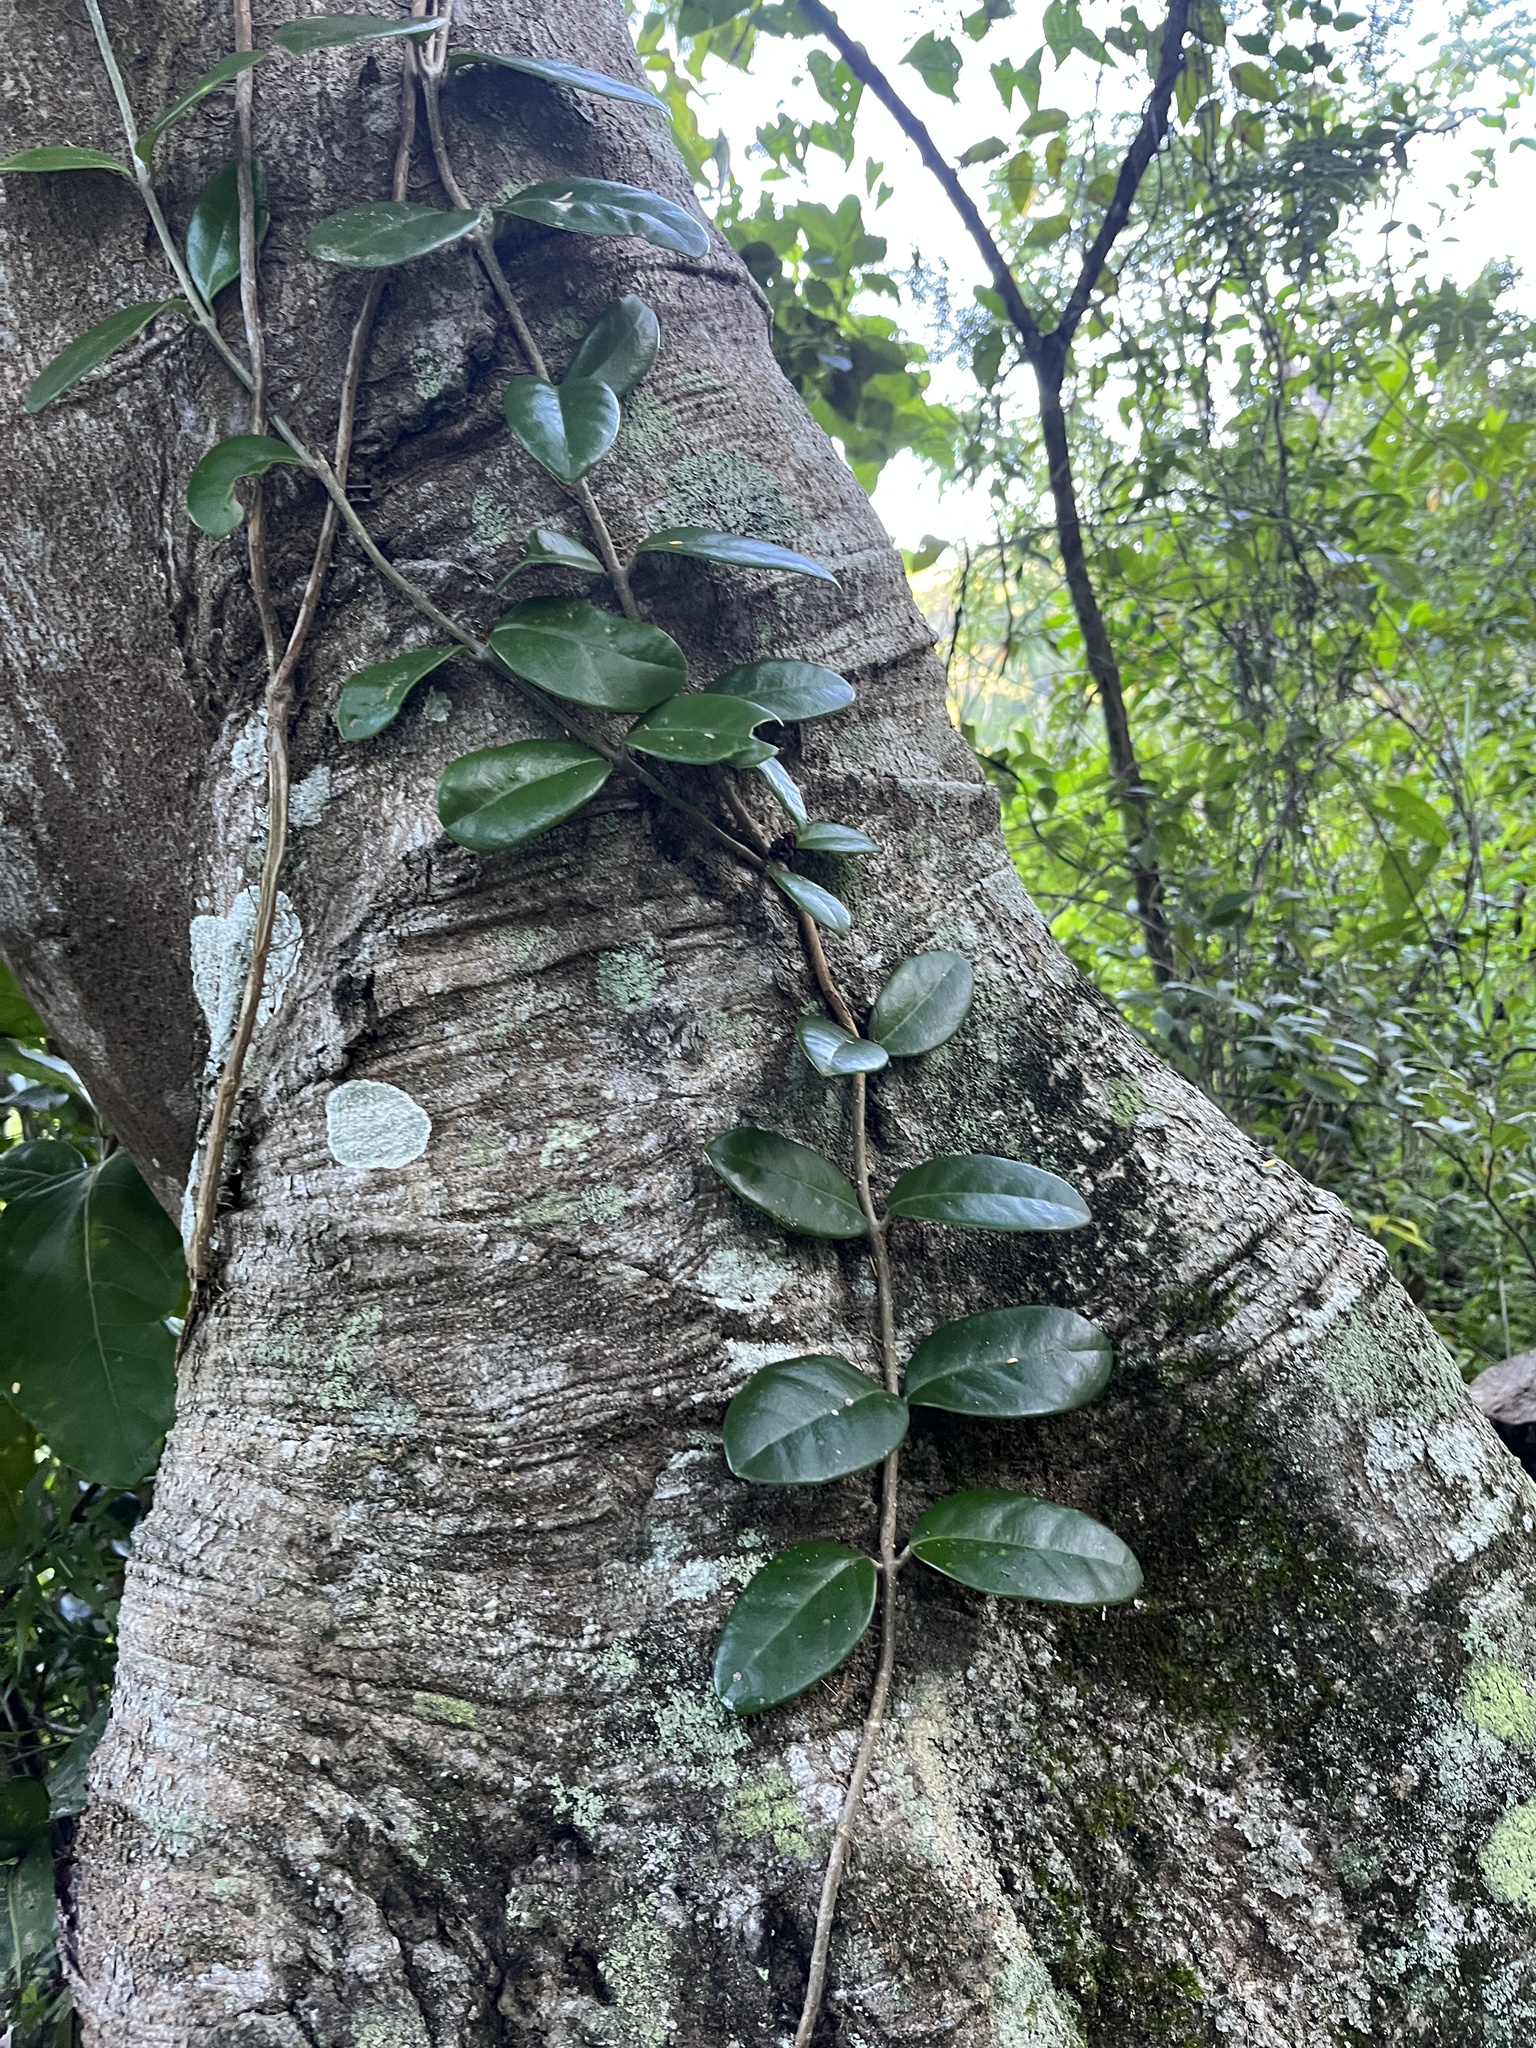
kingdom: Plantae
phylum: Tracheophyta
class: Magnoliopsida
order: Lamiales
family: Schlegeliaceae
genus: Schlegelia
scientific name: Schlegelia brachyantha
